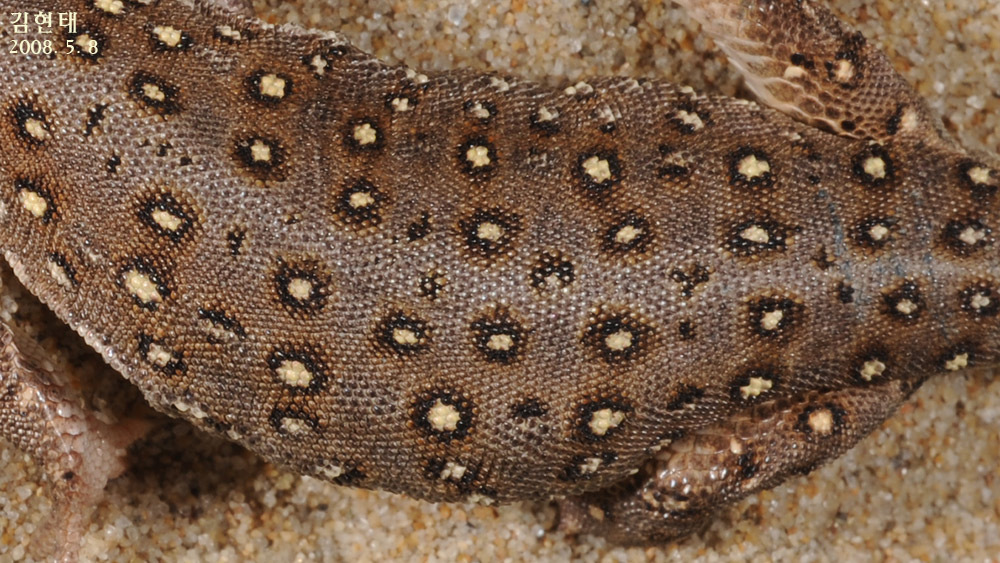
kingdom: Animalia
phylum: Chordata
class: Squamata
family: Lacertidae
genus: Eremias
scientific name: Eremias argus
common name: Mongolia racerunner
